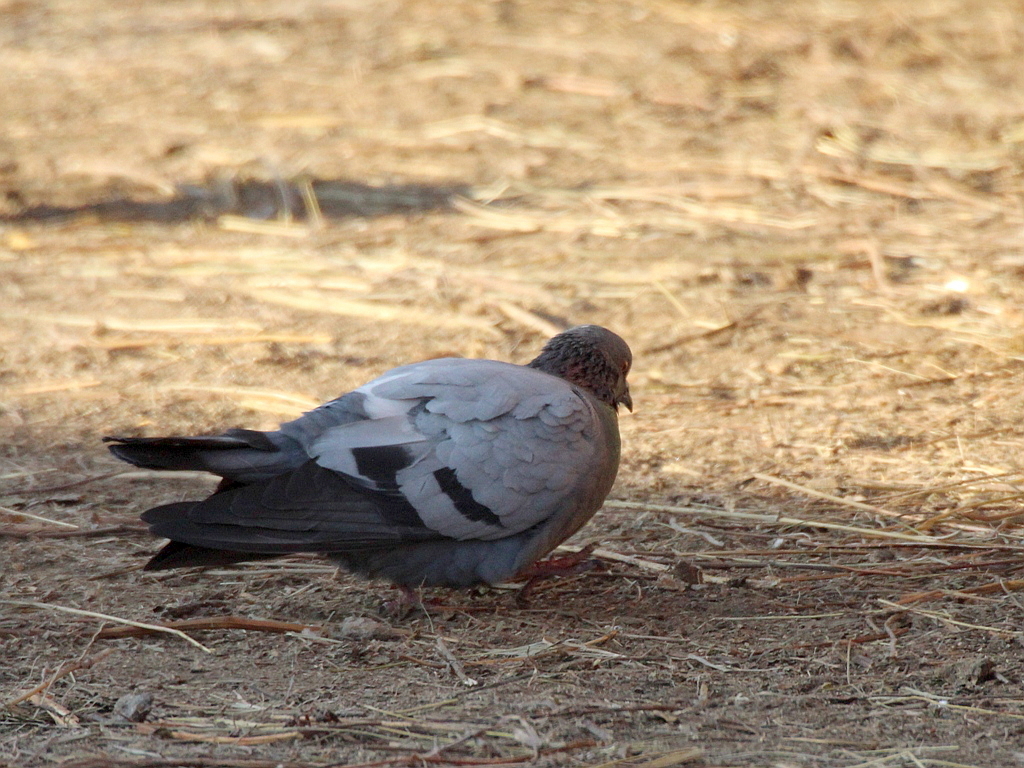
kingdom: Animalia
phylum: Chordata
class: Aves
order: Columbiformes
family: Columbidae
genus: Columba
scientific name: Columba livia
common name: Rock pigeon
